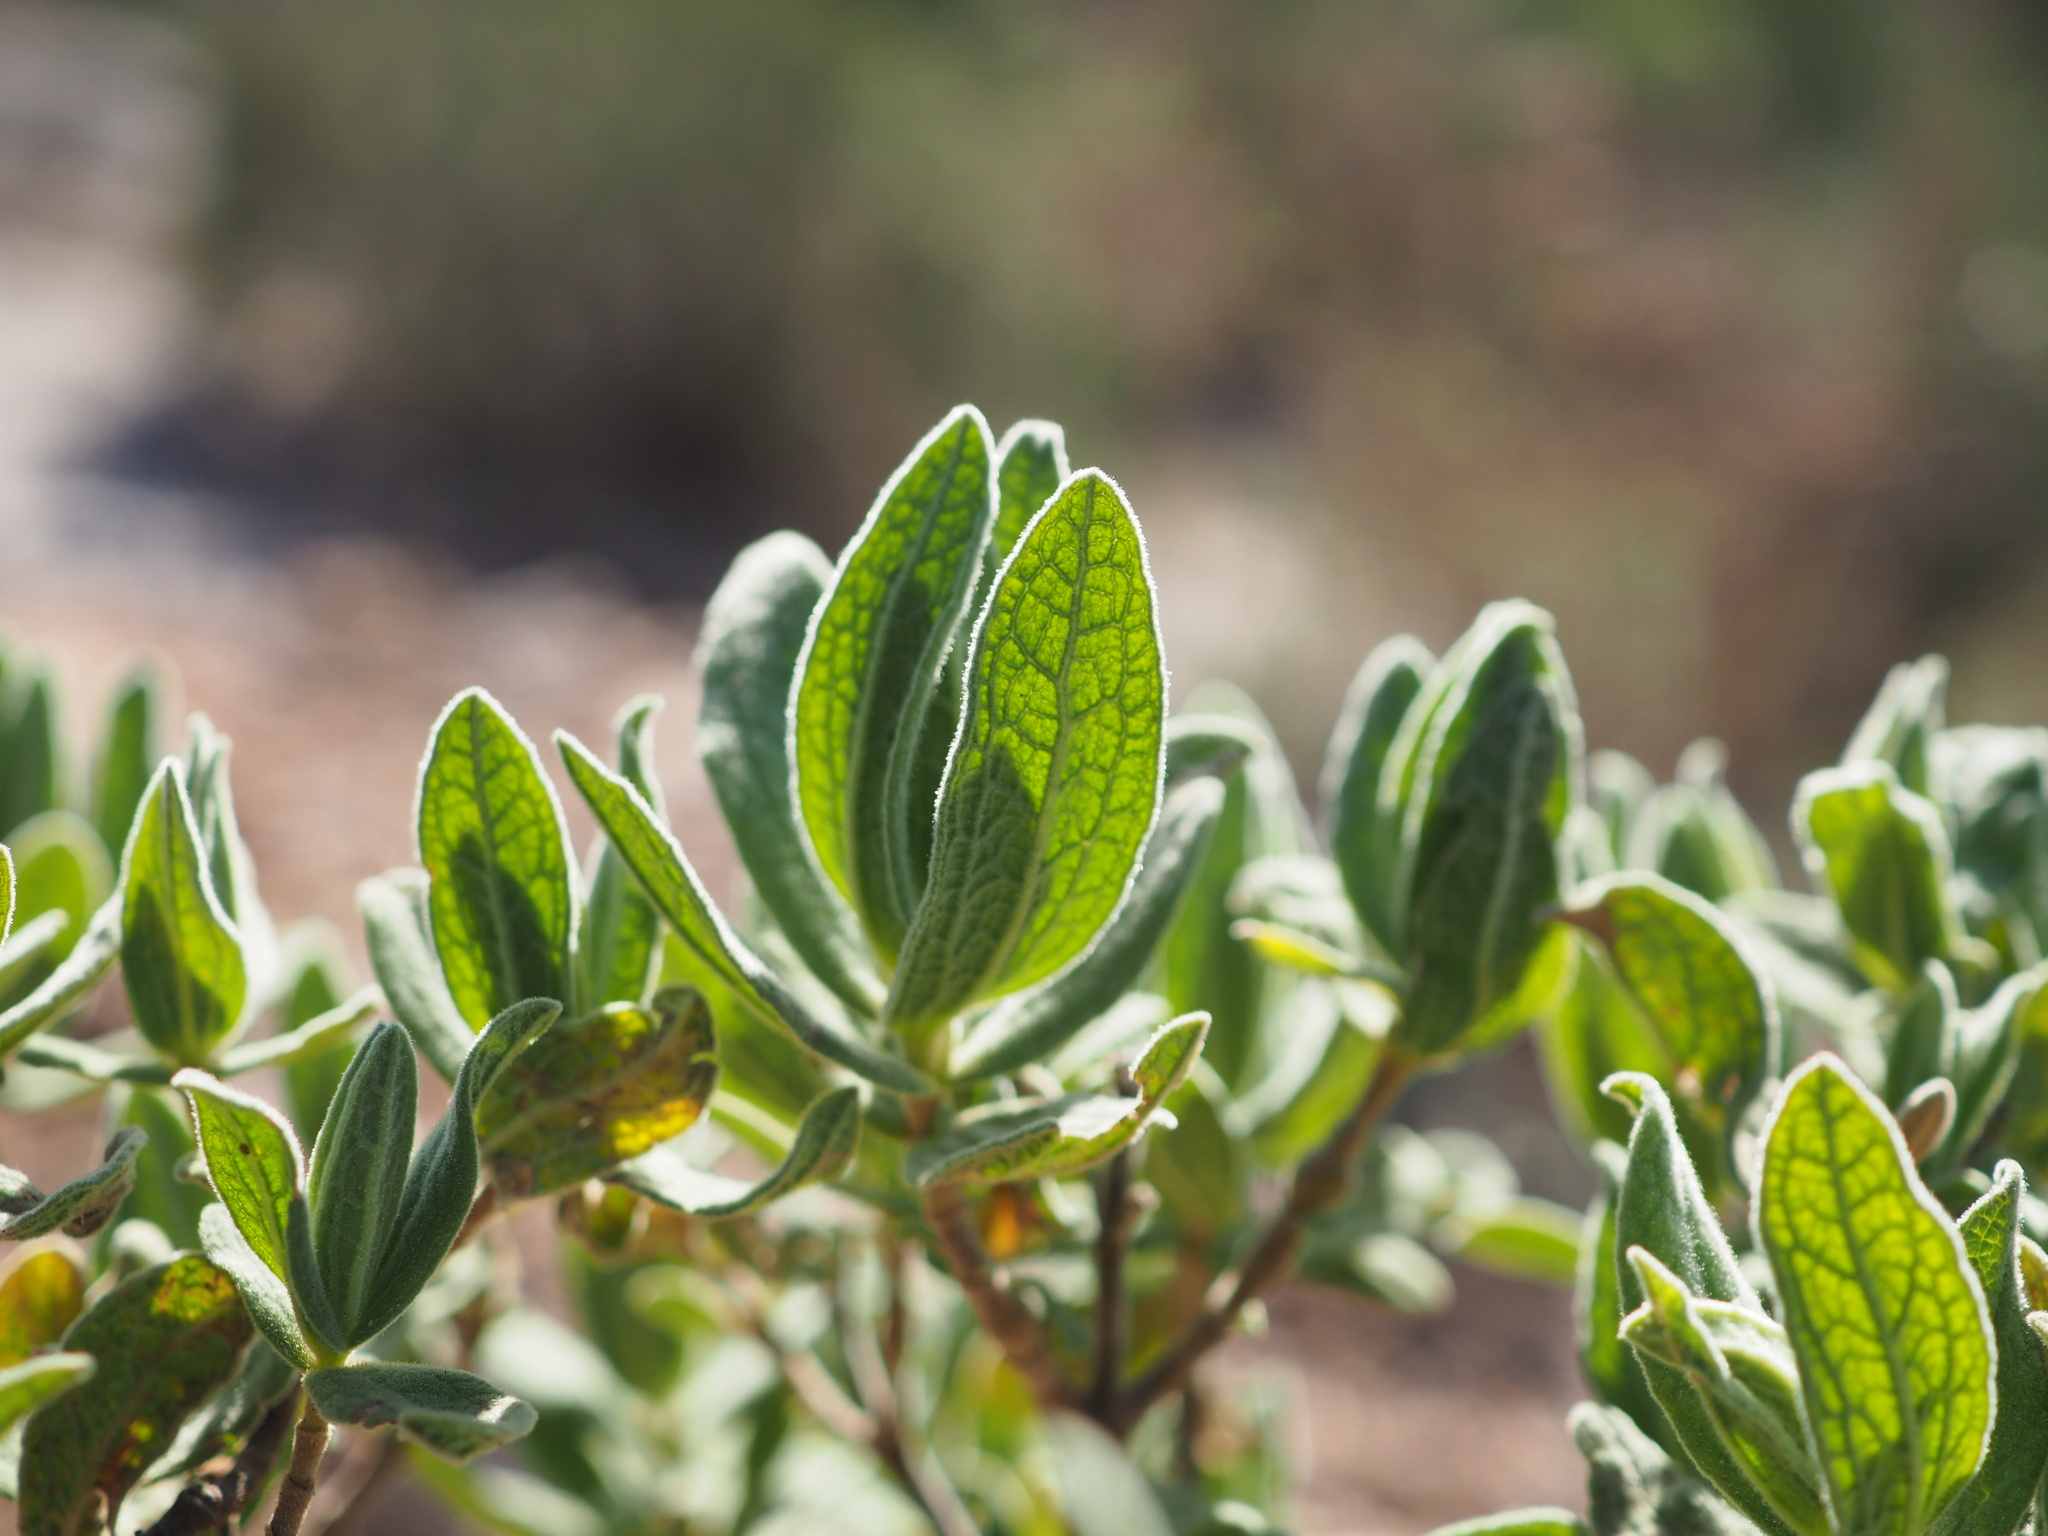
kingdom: Plantae
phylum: Tracheophyta
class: Magnoliopsida
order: Malvales
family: Cistaceae
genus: Cistus
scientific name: Cistus albidus
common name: White-leaf rock-rose
